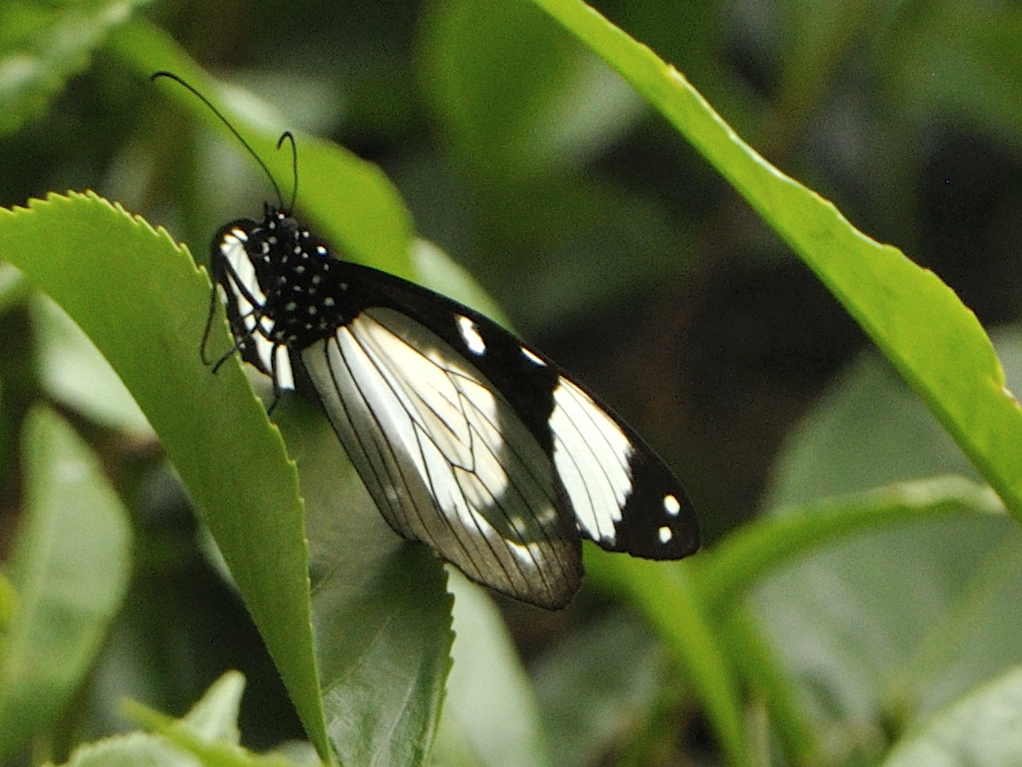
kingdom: Animalia
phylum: Arthropoda
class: Insecta
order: Lepidoptera
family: Nymphalidae
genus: Amauris
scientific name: Amauris niavius
